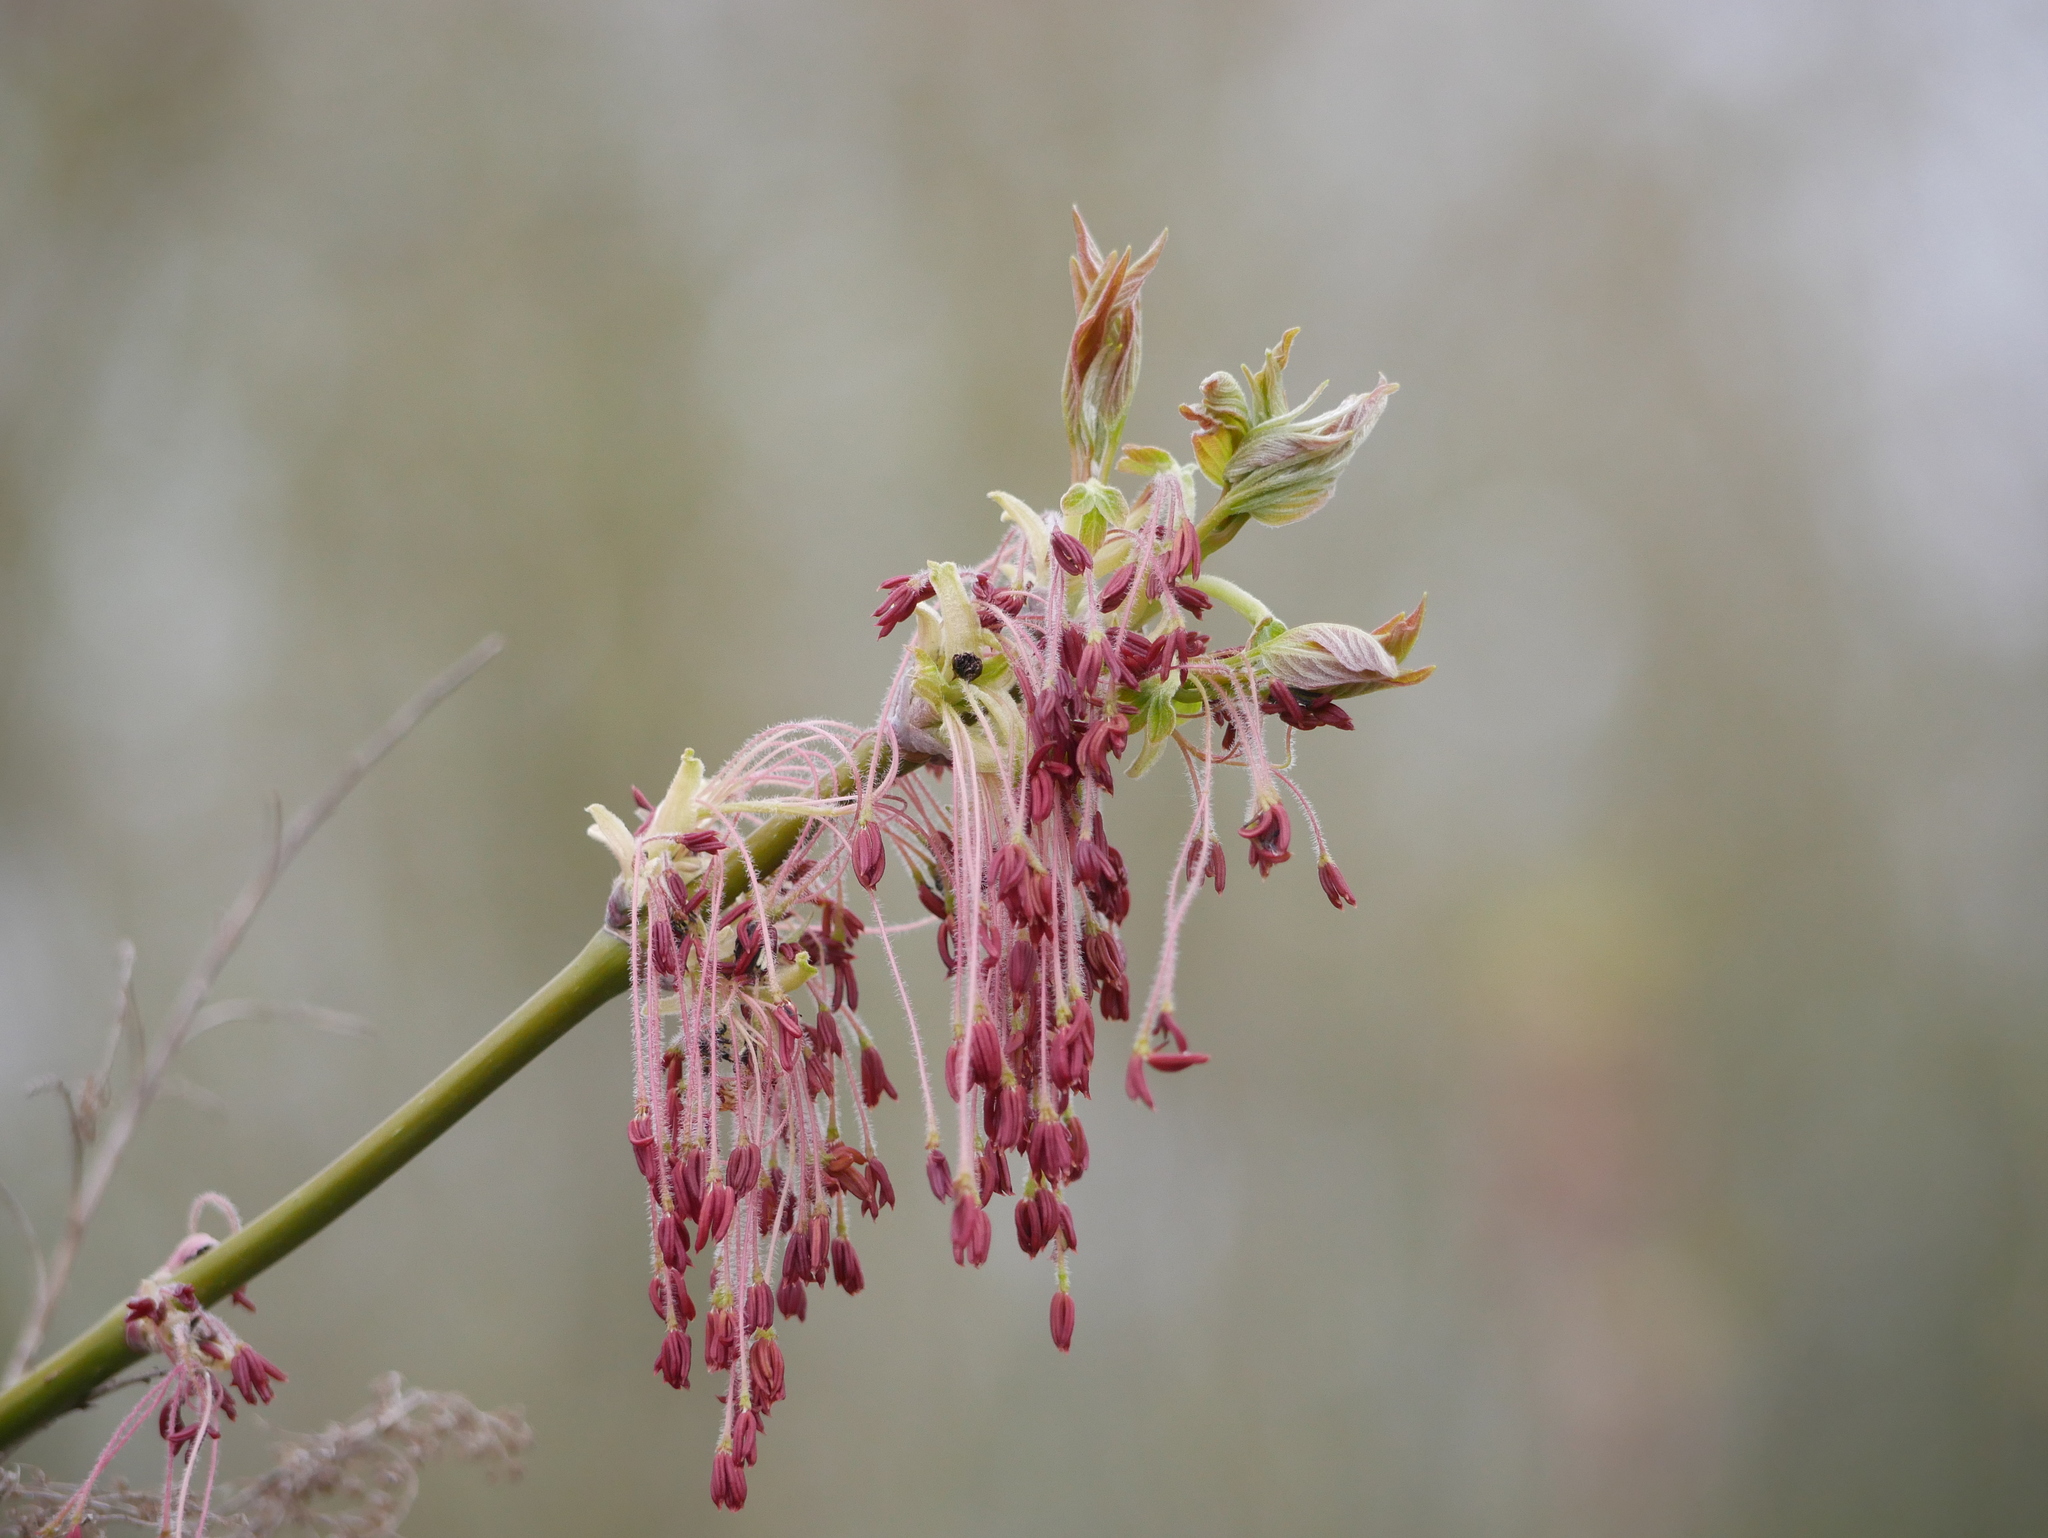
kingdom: Plantae
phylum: Tracheophyta
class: Magnoliopsida
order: Sapindales
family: Sapindaceae
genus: Acer
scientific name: Acer negundo
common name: Ashleaf maple
